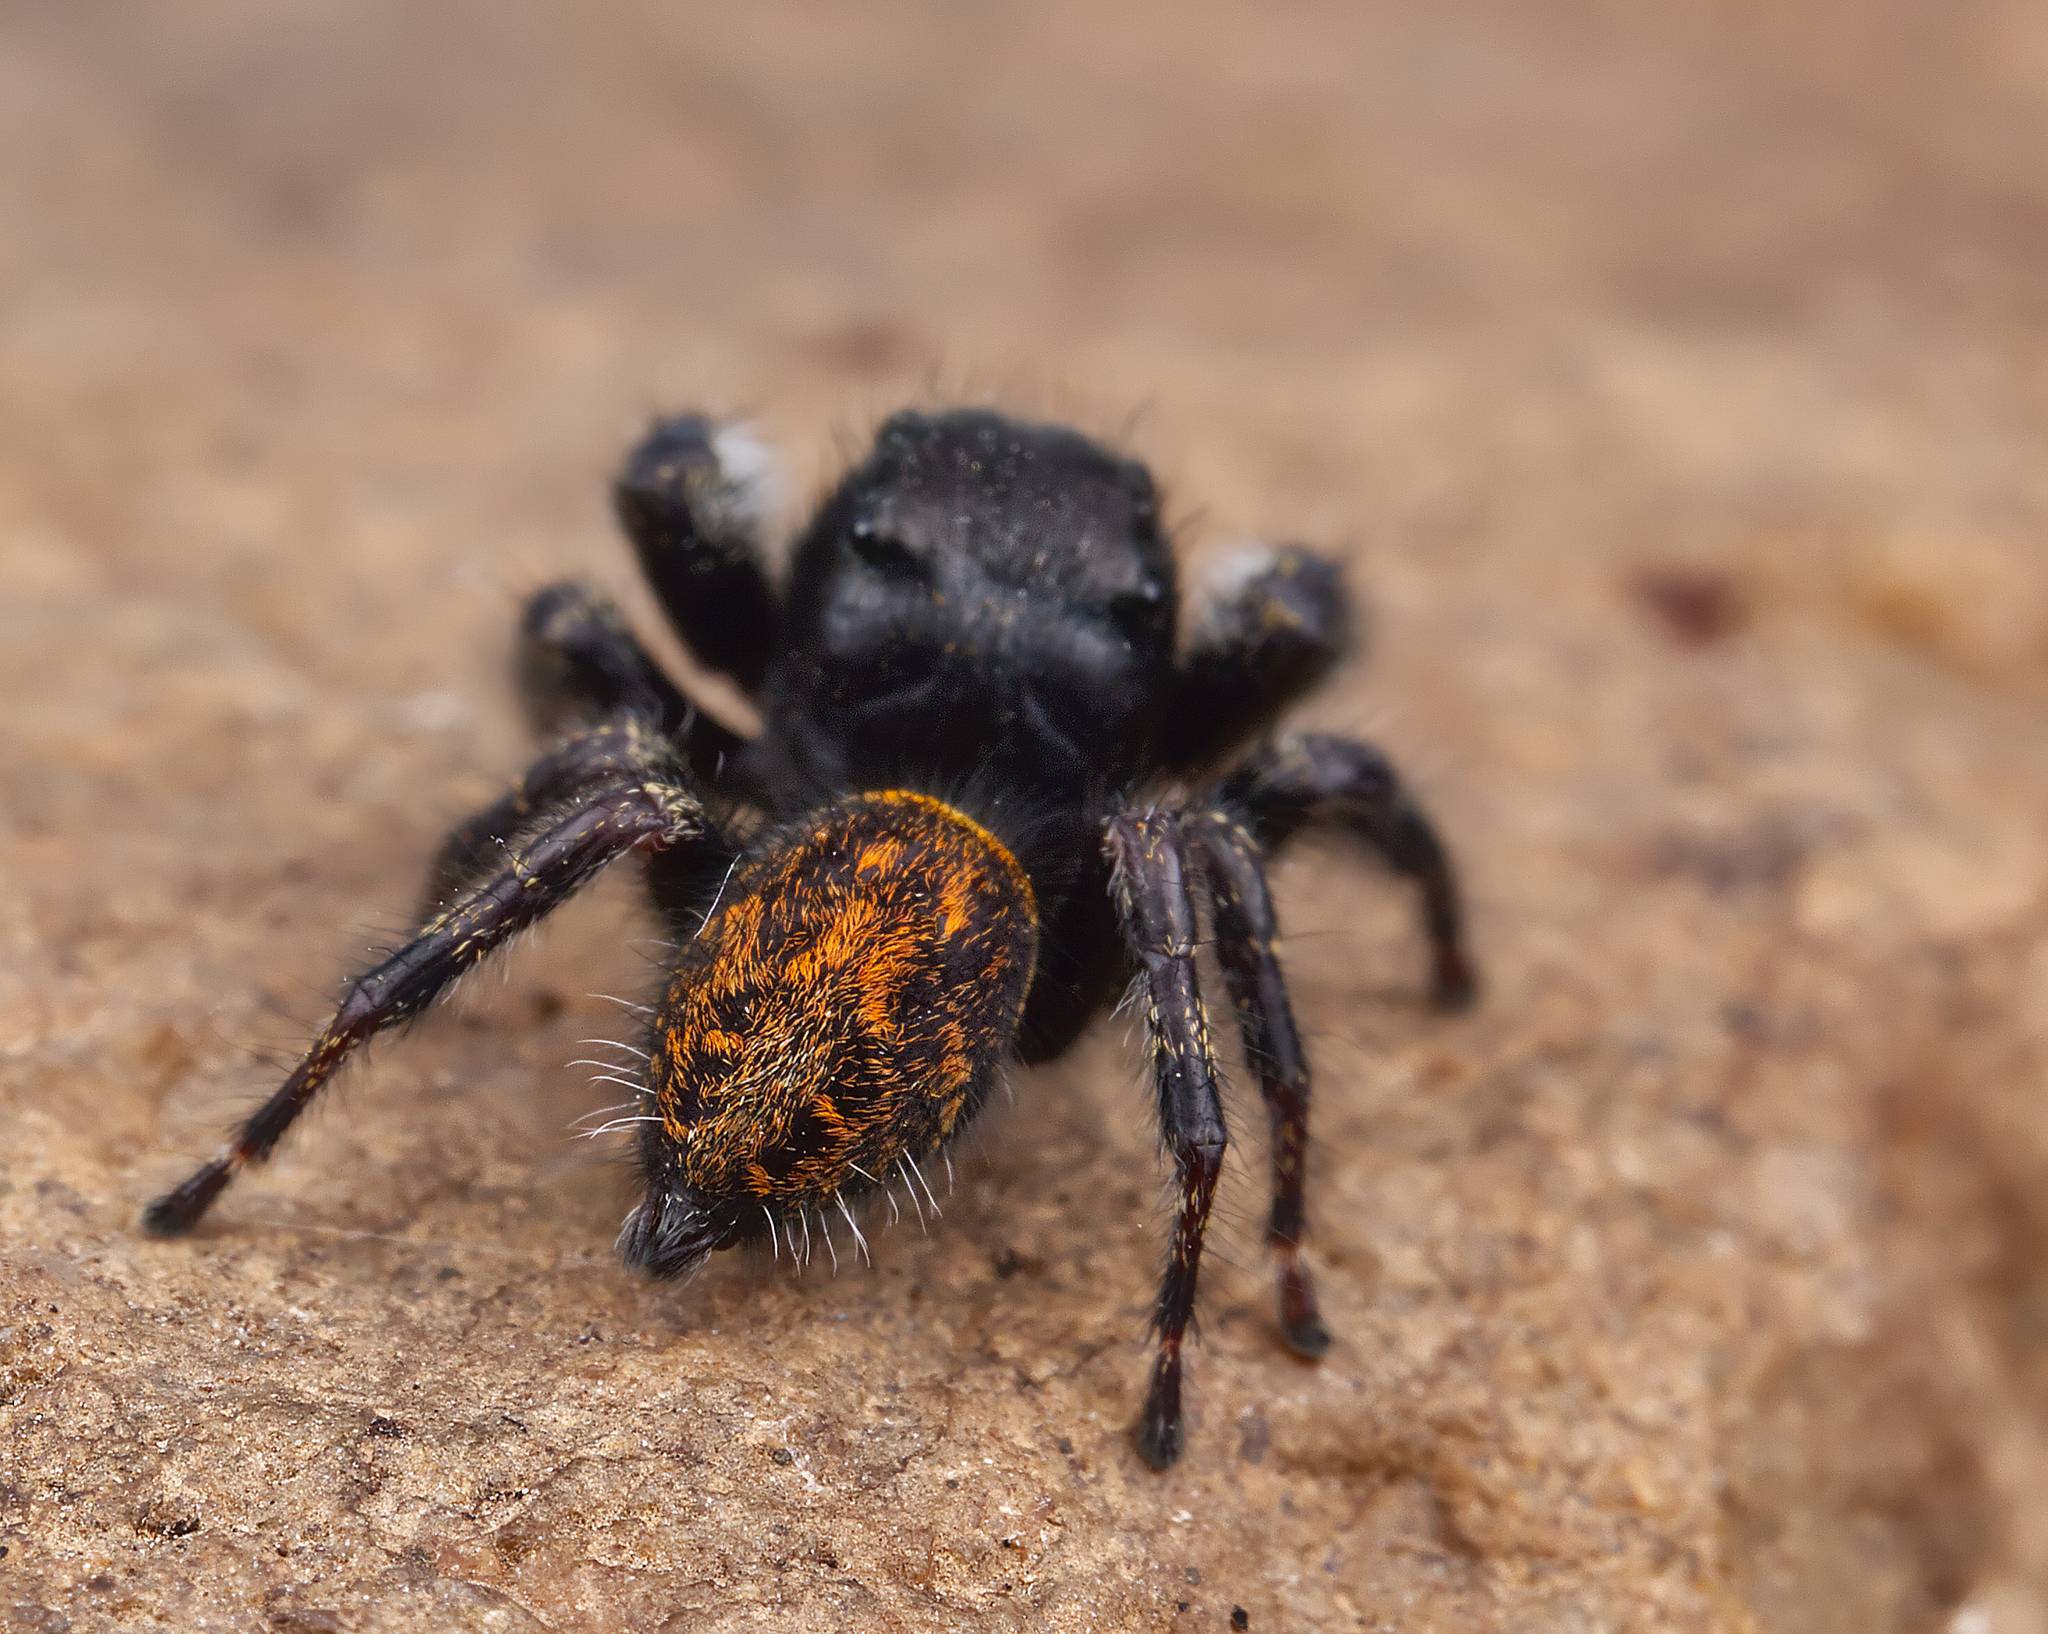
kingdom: Animalia
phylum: Arthropoda
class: Arachnida
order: Araneae
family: Salticidae
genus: Phidippus
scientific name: Phidippus princeps
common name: Grayish jumping spider
